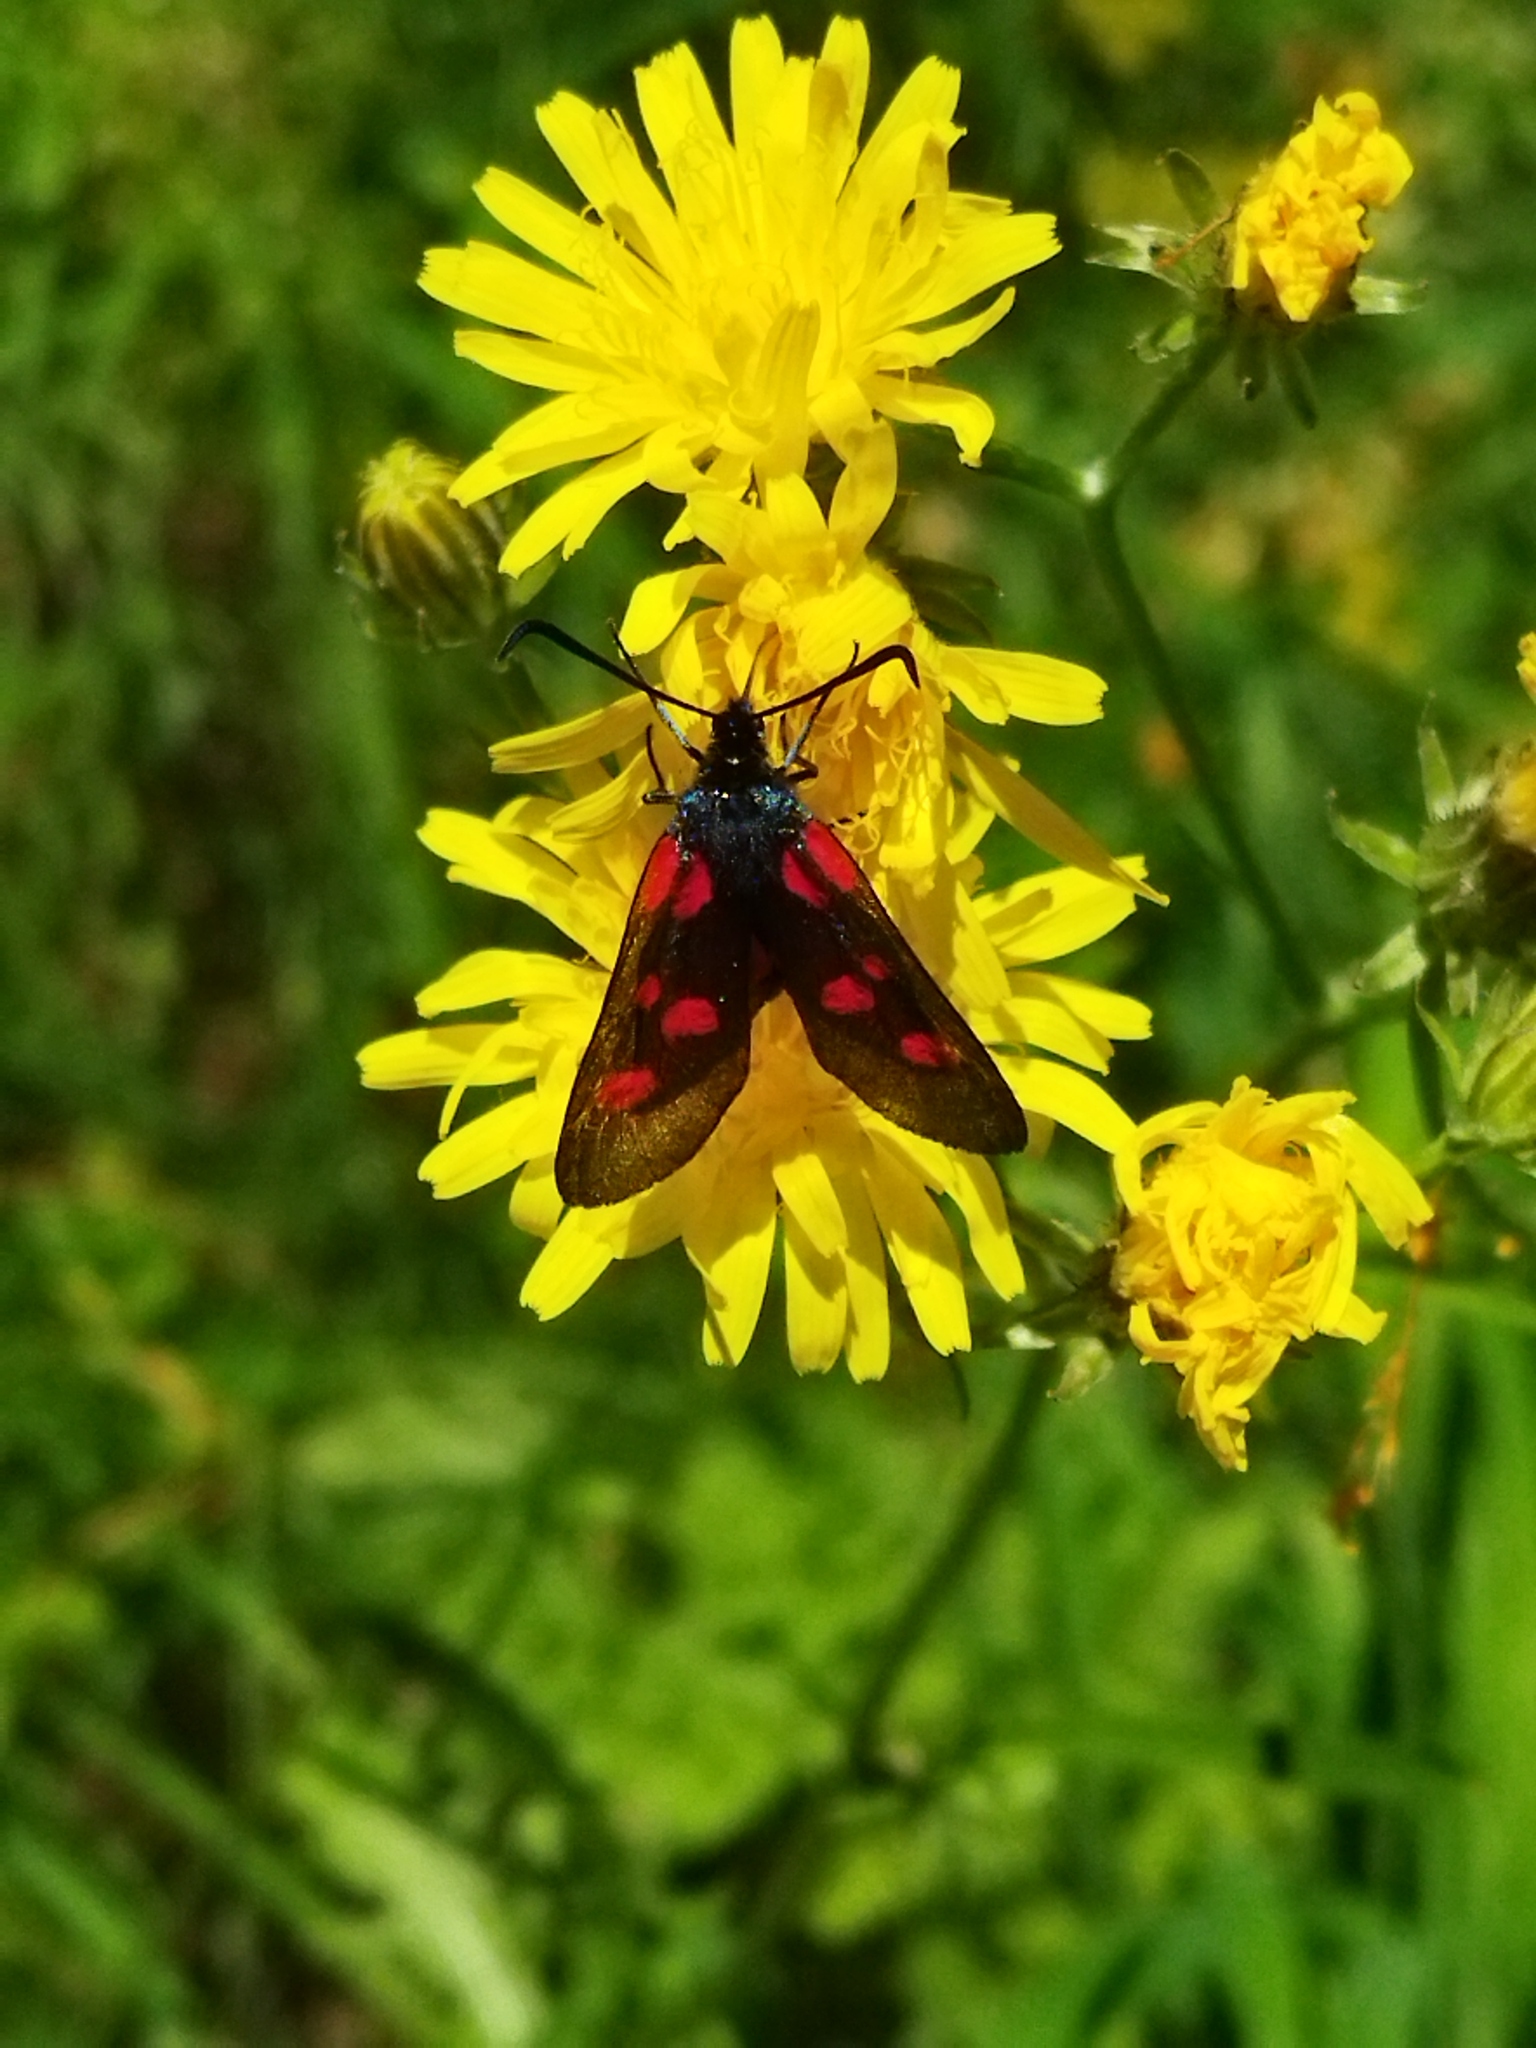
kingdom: Animalia
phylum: Arthropoda
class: Insecta
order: Lepidoptera
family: Zygaenidae
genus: Zygaena
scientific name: Zygaena lonicerae
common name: Narrow-bordered five-spot burnet
